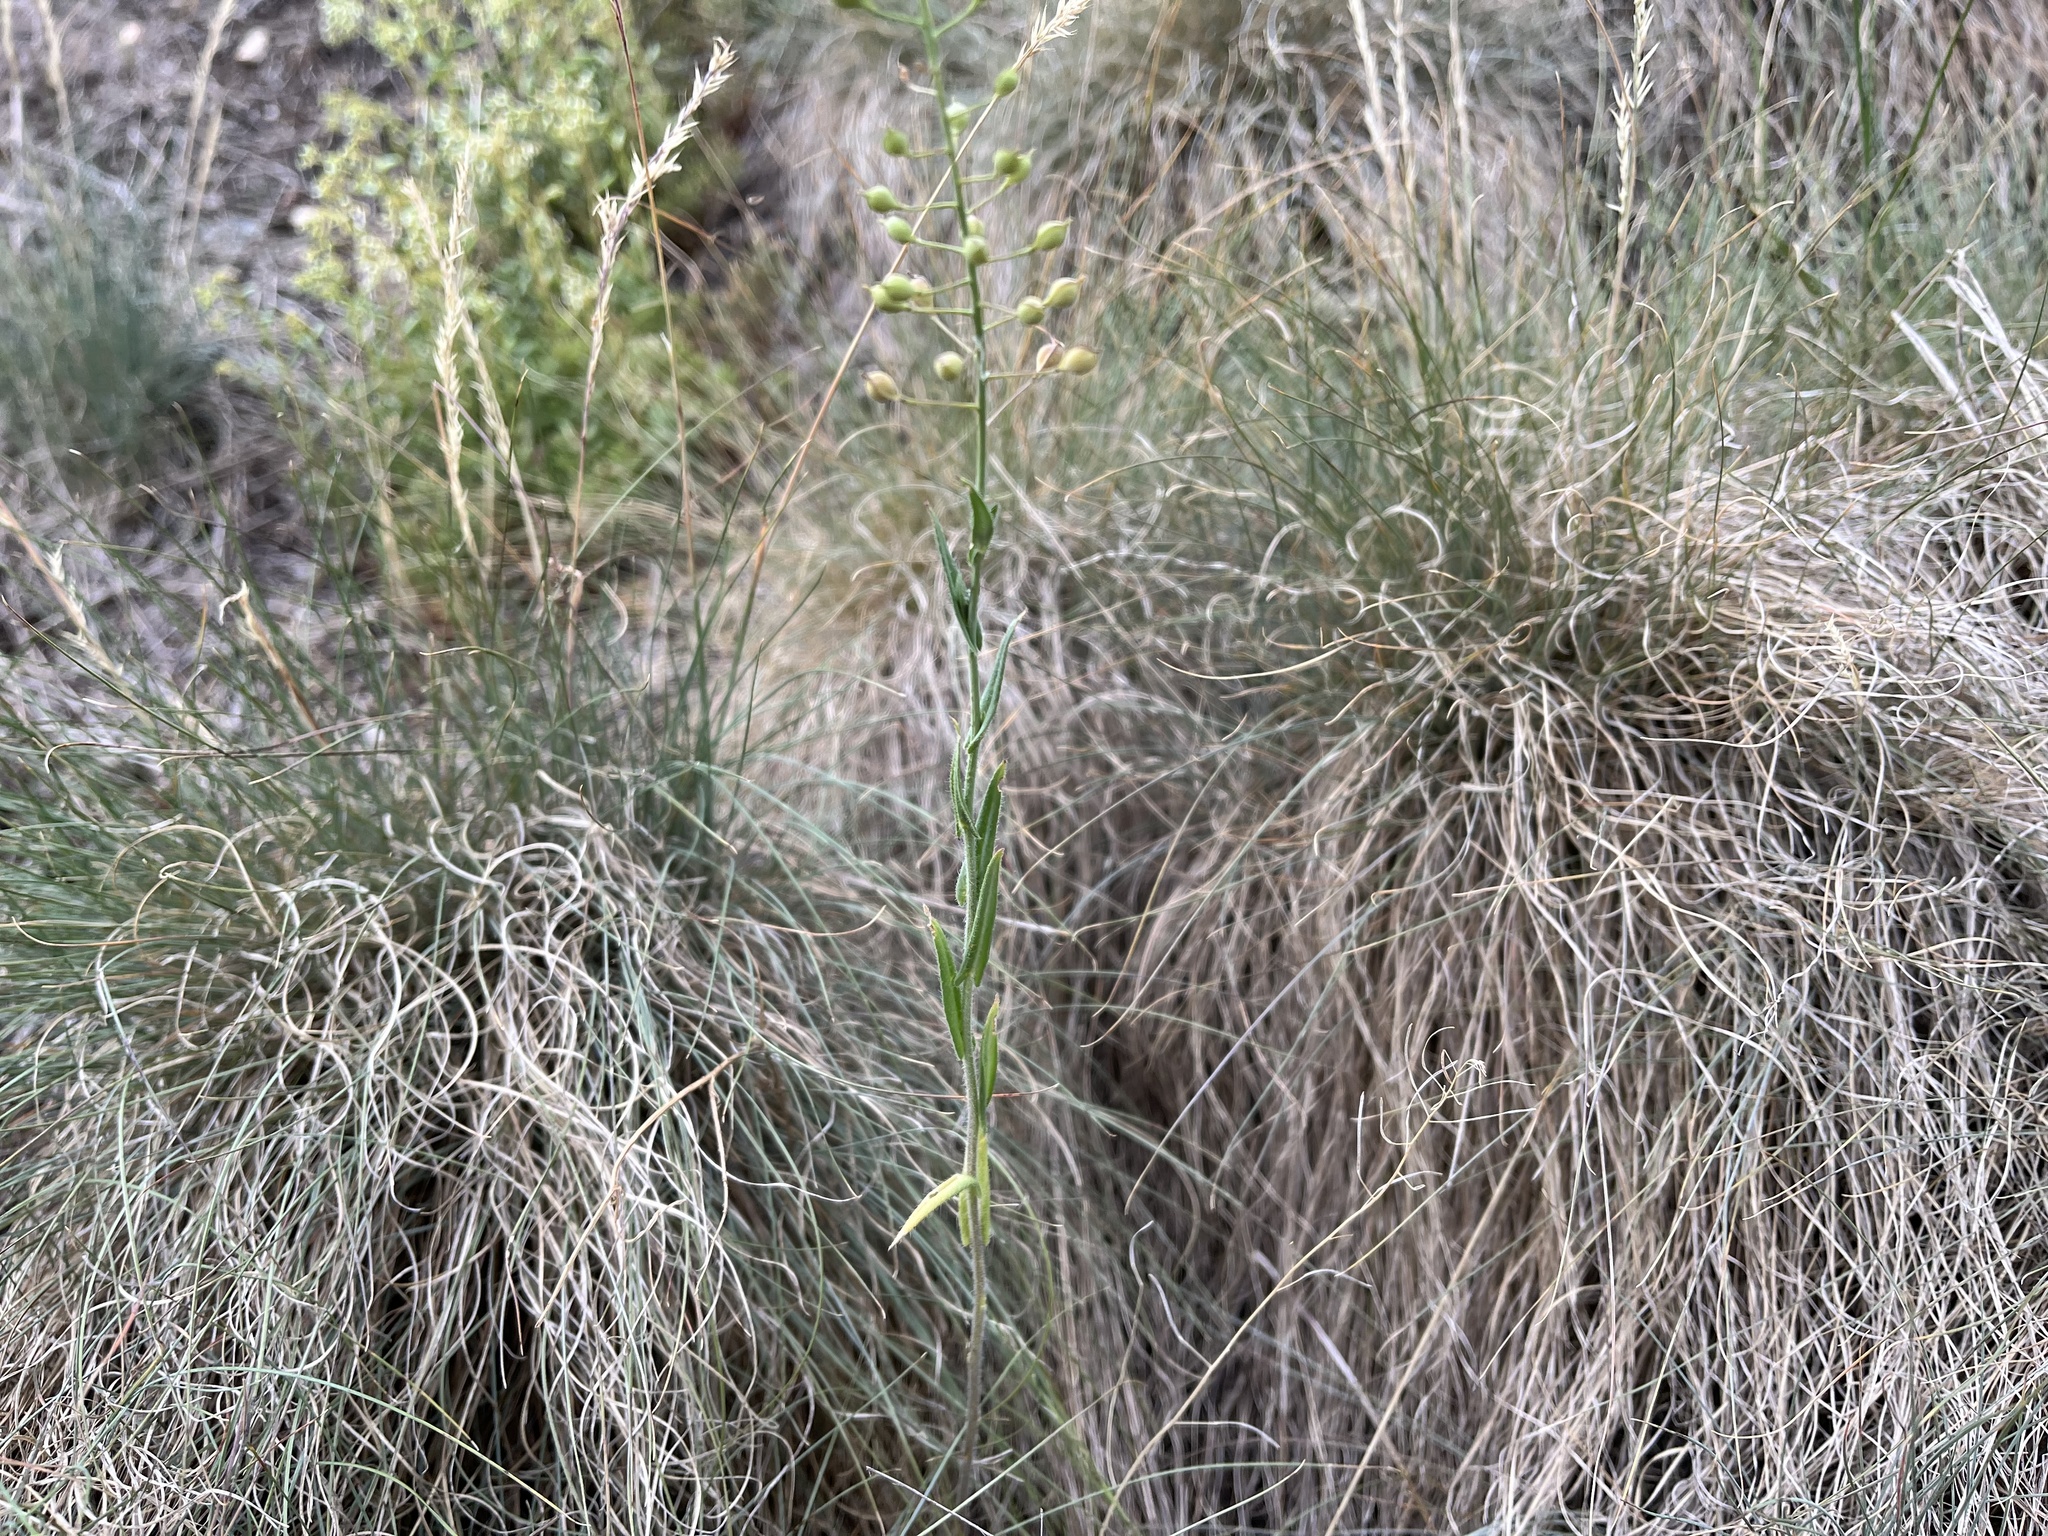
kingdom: Plantae
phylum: Tracheophyta
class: Magnoliopsida
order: Brassicales
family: Brassicaceae
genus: Camelina
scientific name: Camelina microcarpa
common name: Lesser gold-of-pleasure
